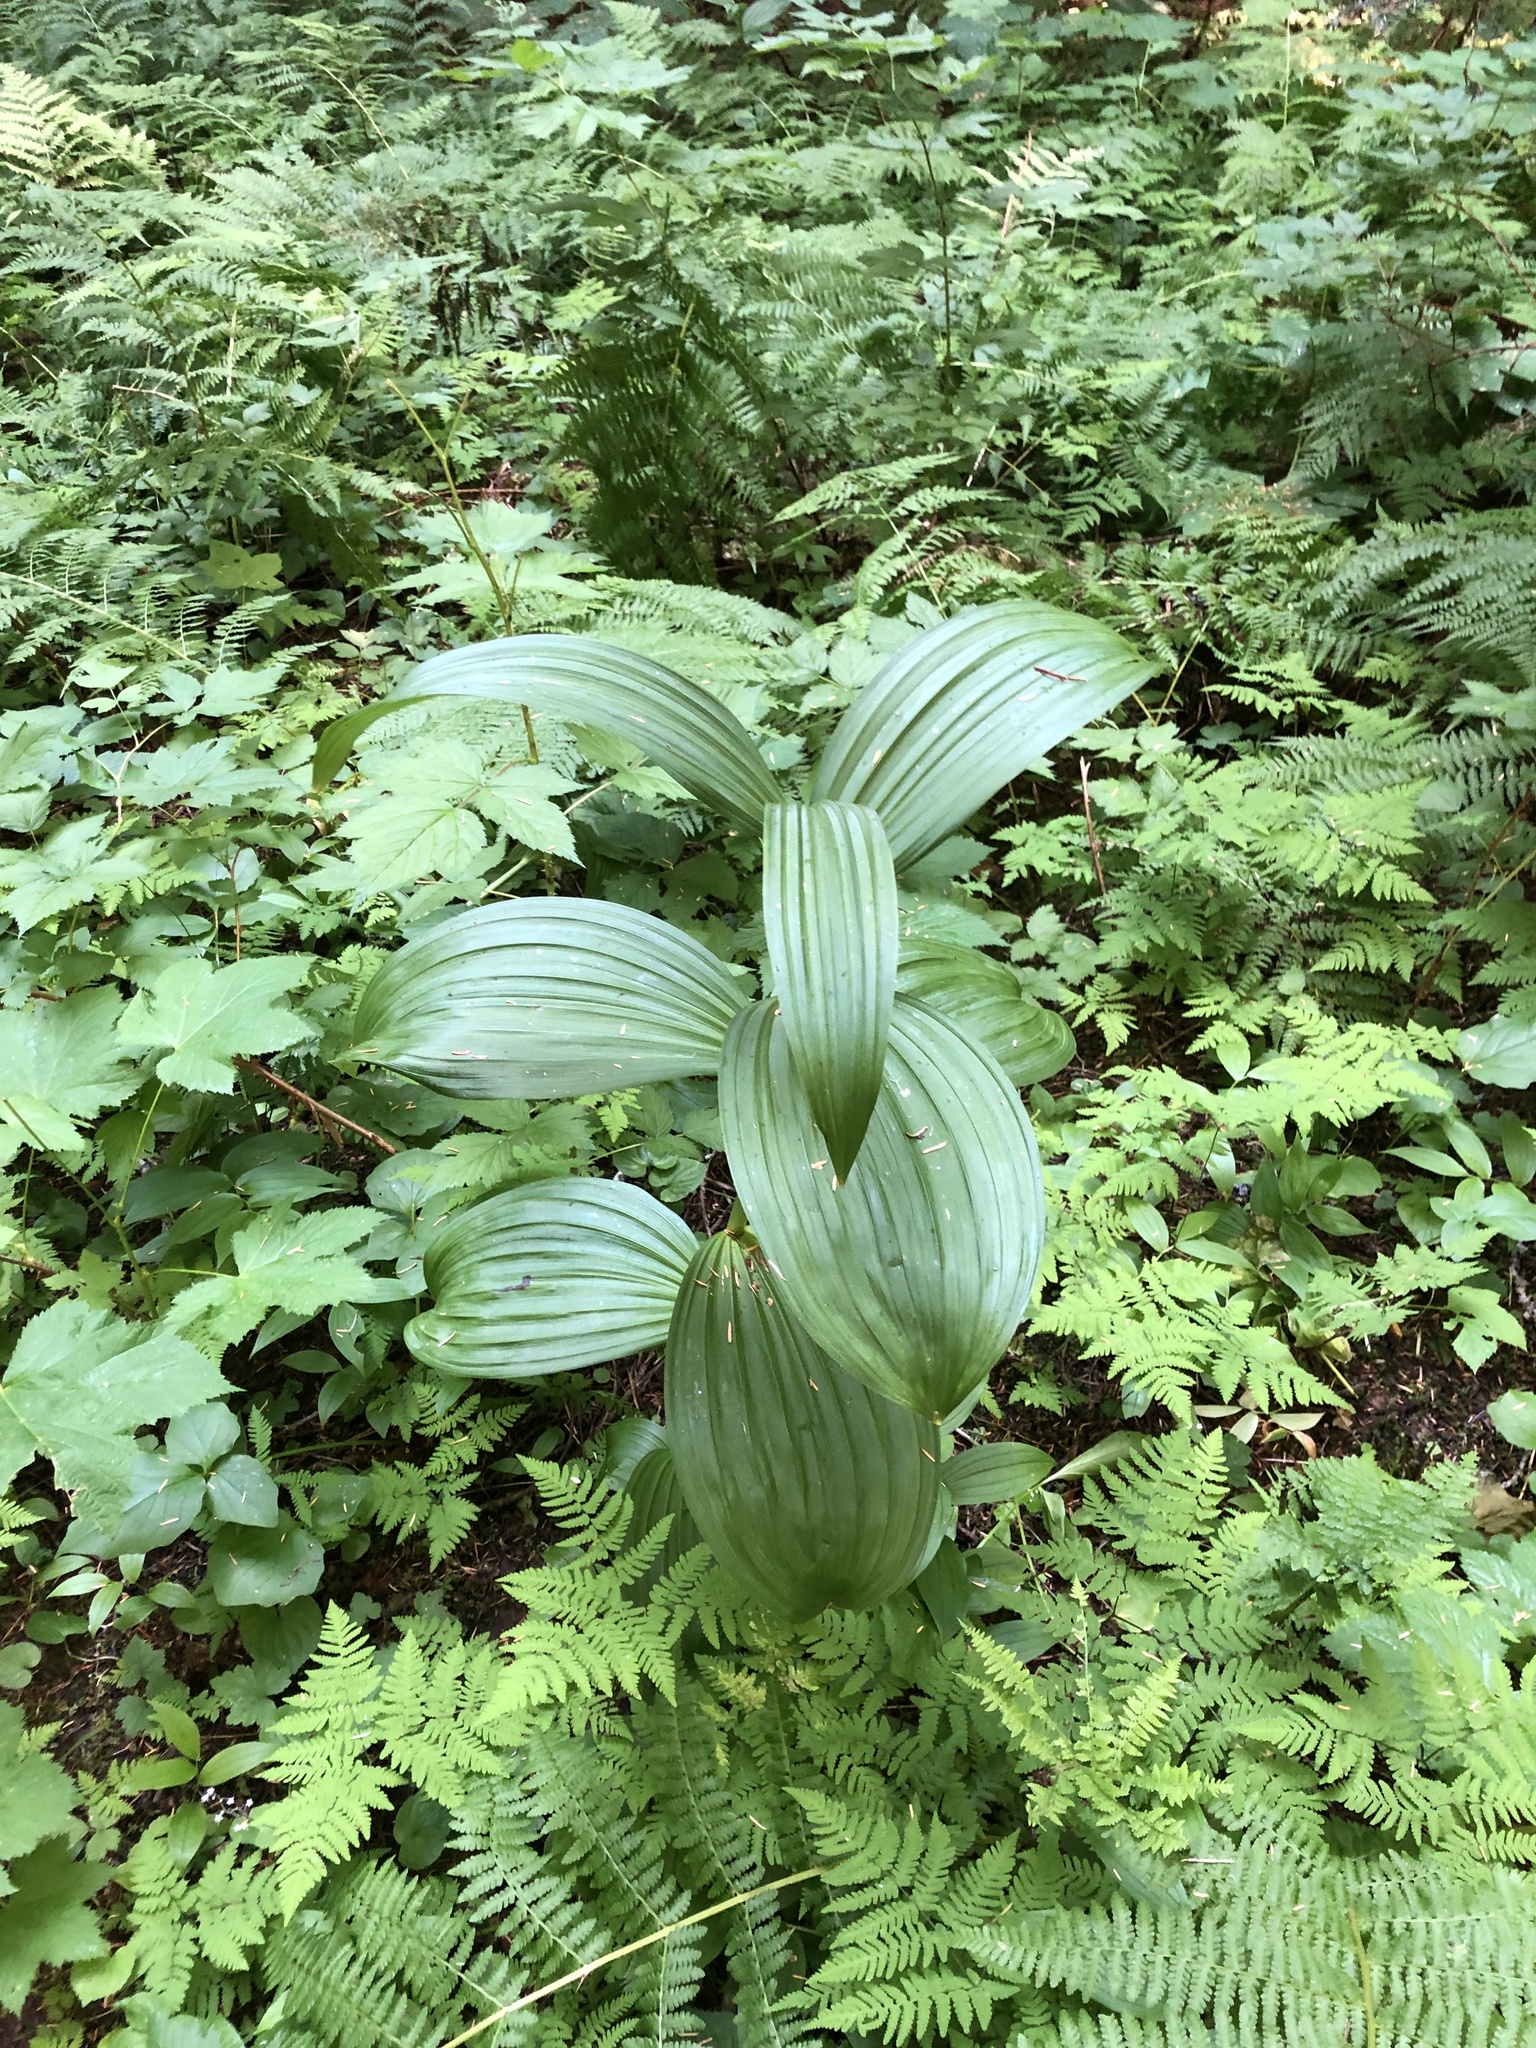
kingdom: Plantae
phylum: Tracheophyta
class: Liliopsida
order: Liliales
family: Melanthiaceae
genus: Veratrum
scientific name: Veratrum viride
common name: American false hellebore
